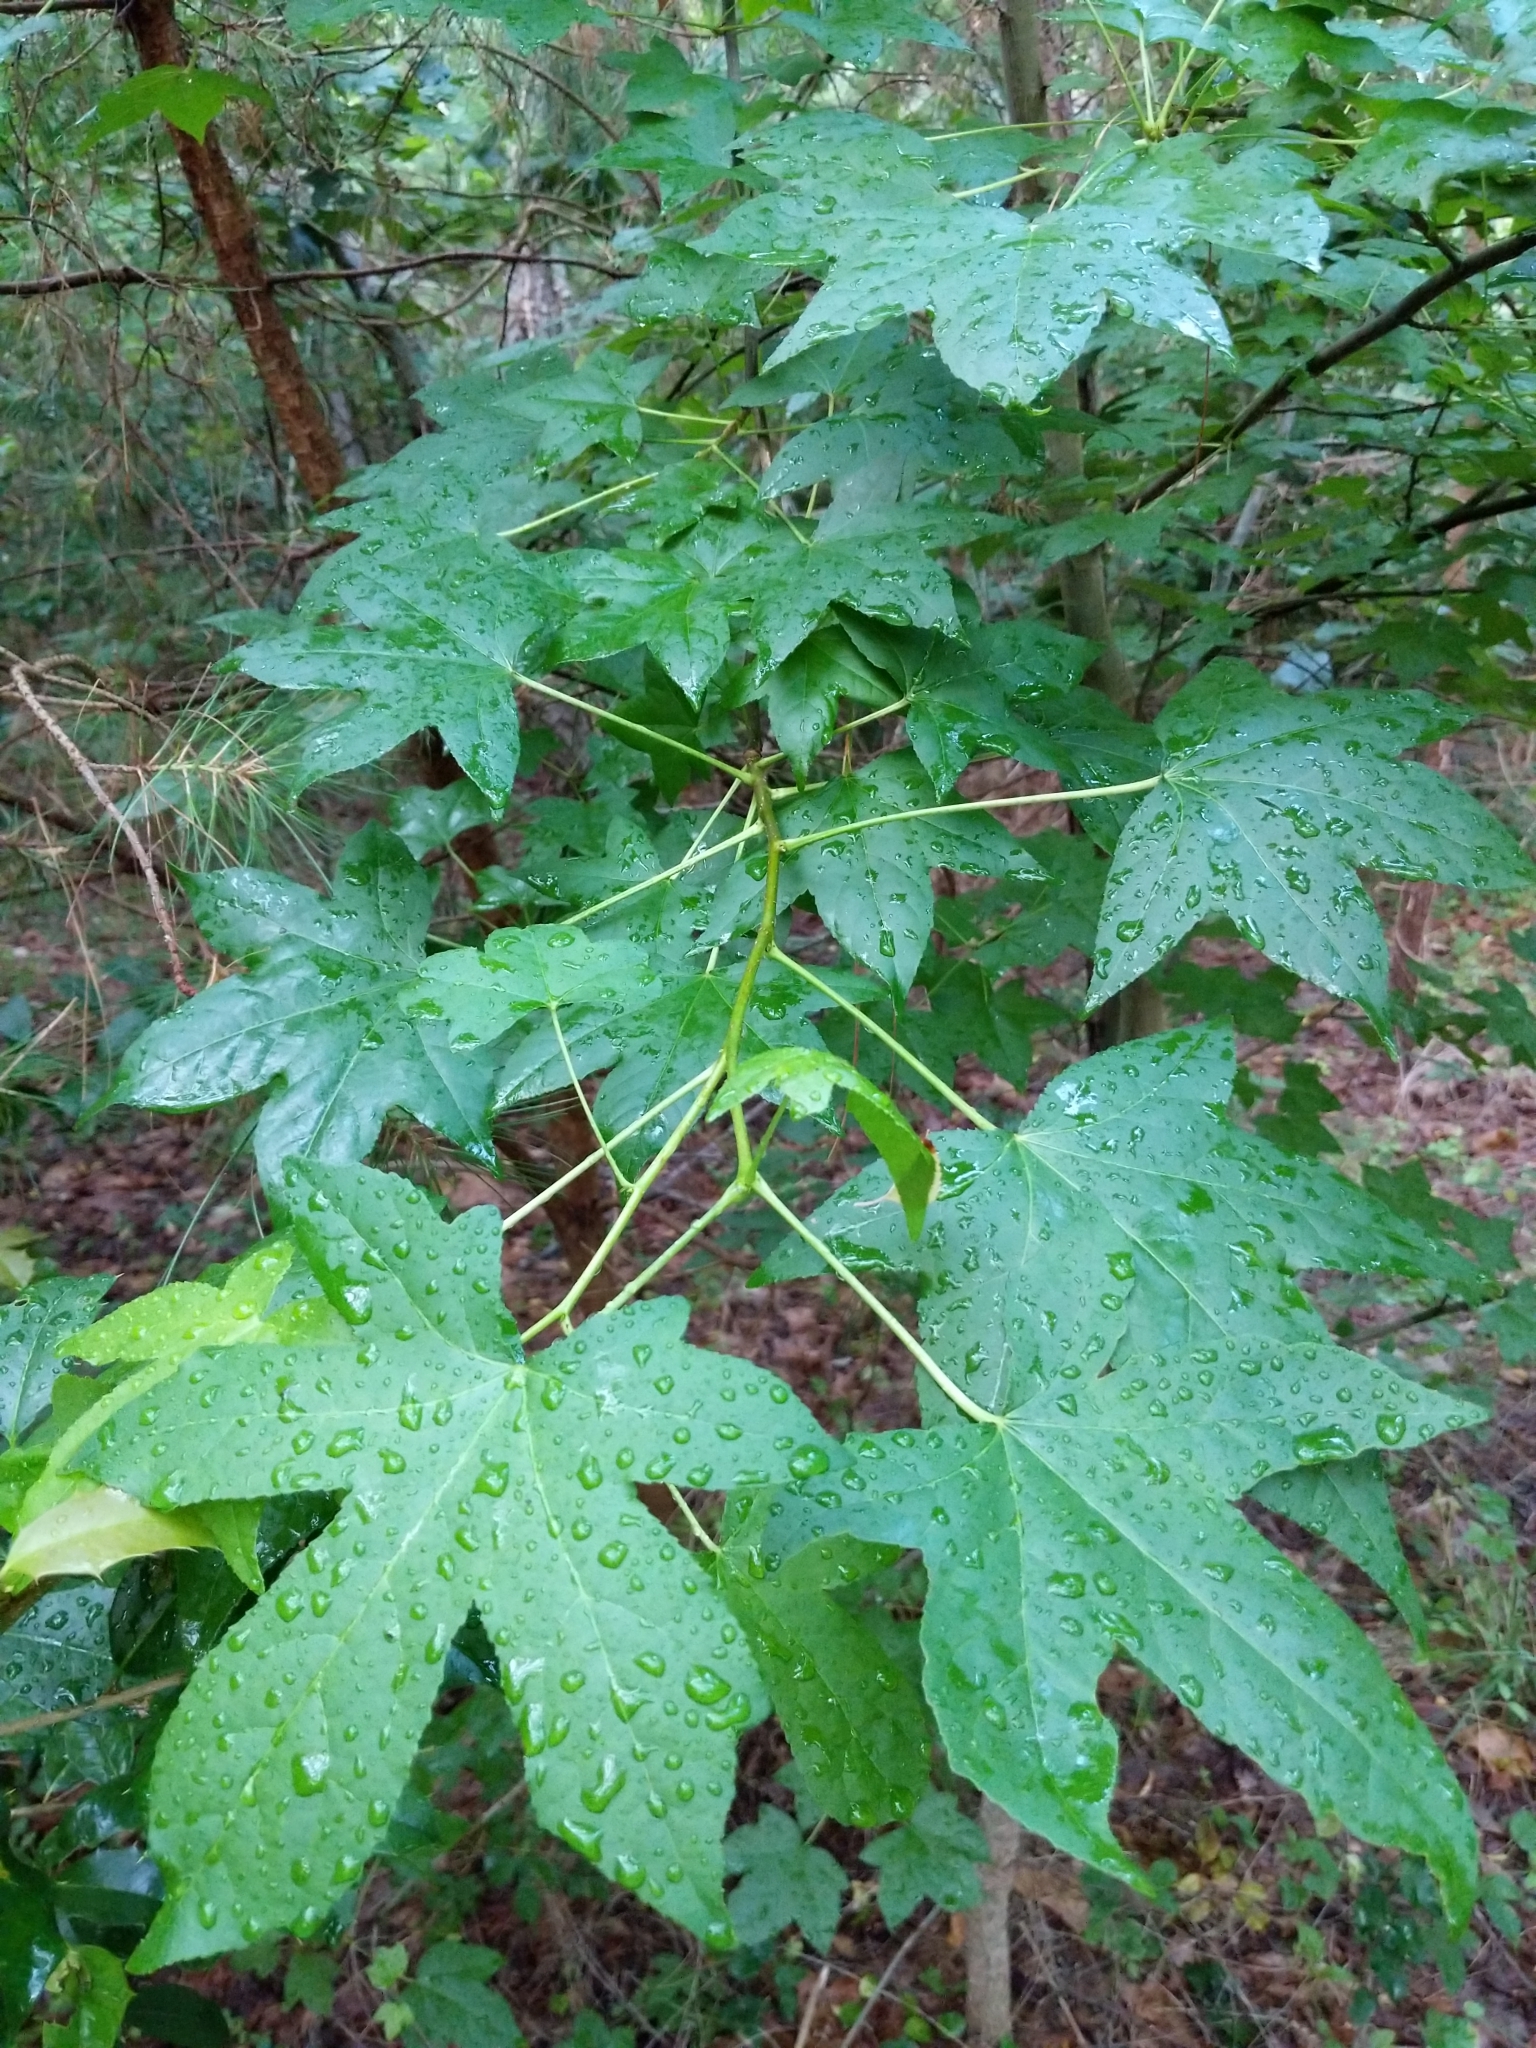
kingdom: Plantae
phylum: Tracheophyta
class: Magnoliopsida
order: Saxifragales
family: Altingiaceae
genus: Liquidambar
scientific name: Liquidambar styraciflua
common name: Sweet gum
